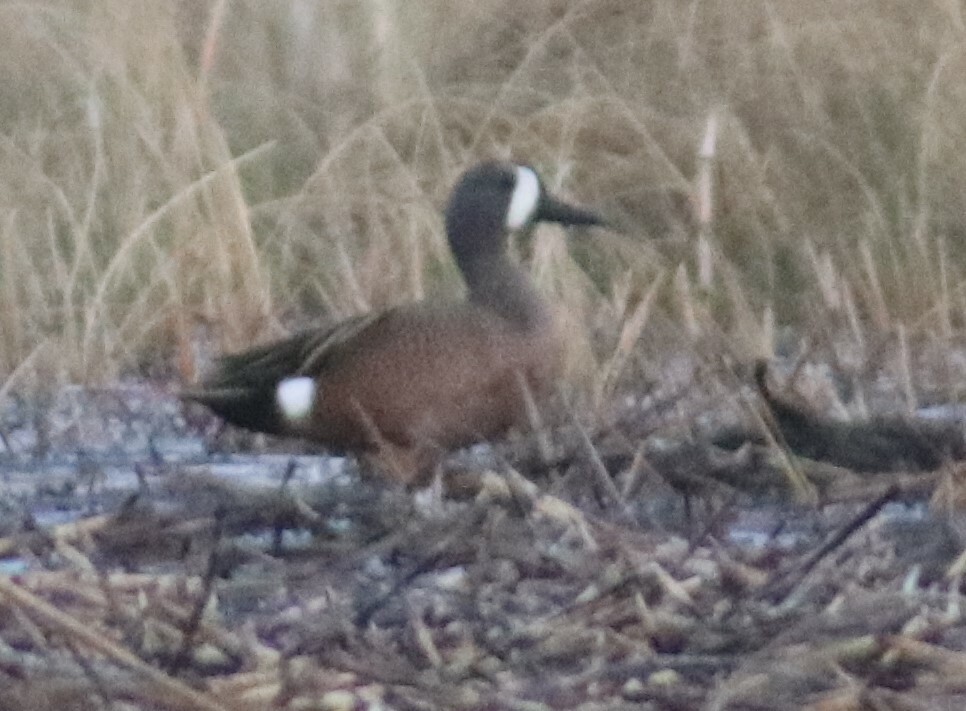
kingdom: Animalia
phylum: Chordata
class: Aves
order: Anseriformes
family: Anatidae
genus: Spatula
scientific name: Spatula discors
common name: Blue-winged teal
